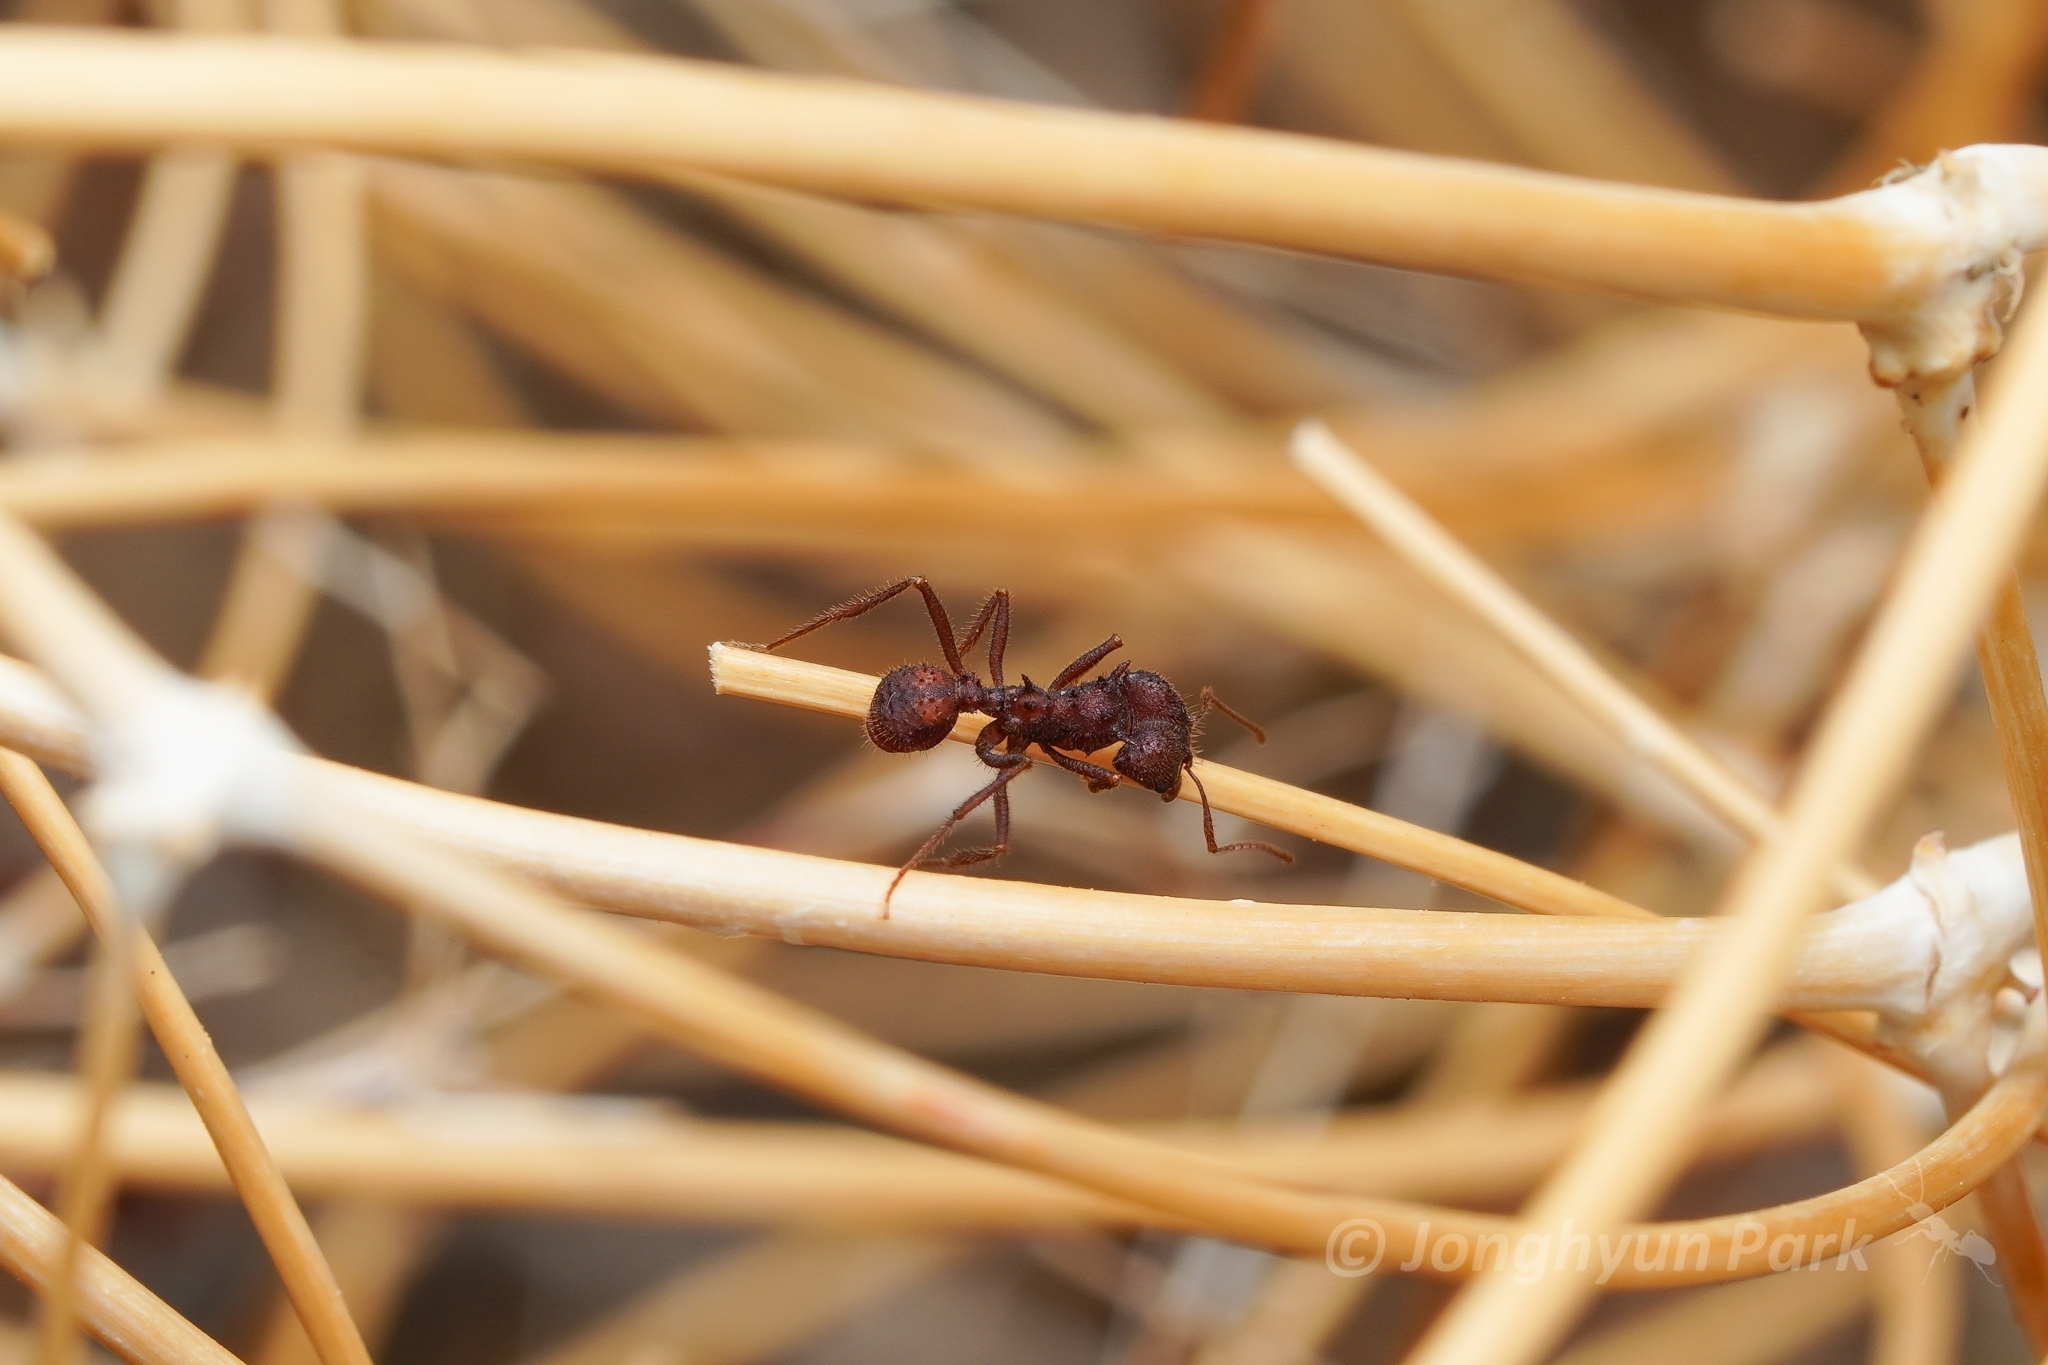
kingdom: Animalia
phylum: Arthropoda
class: Insecta
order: Hymenoptera
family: Formicidae
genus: Acromyrmex
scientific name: Acromyrmex versicolor
